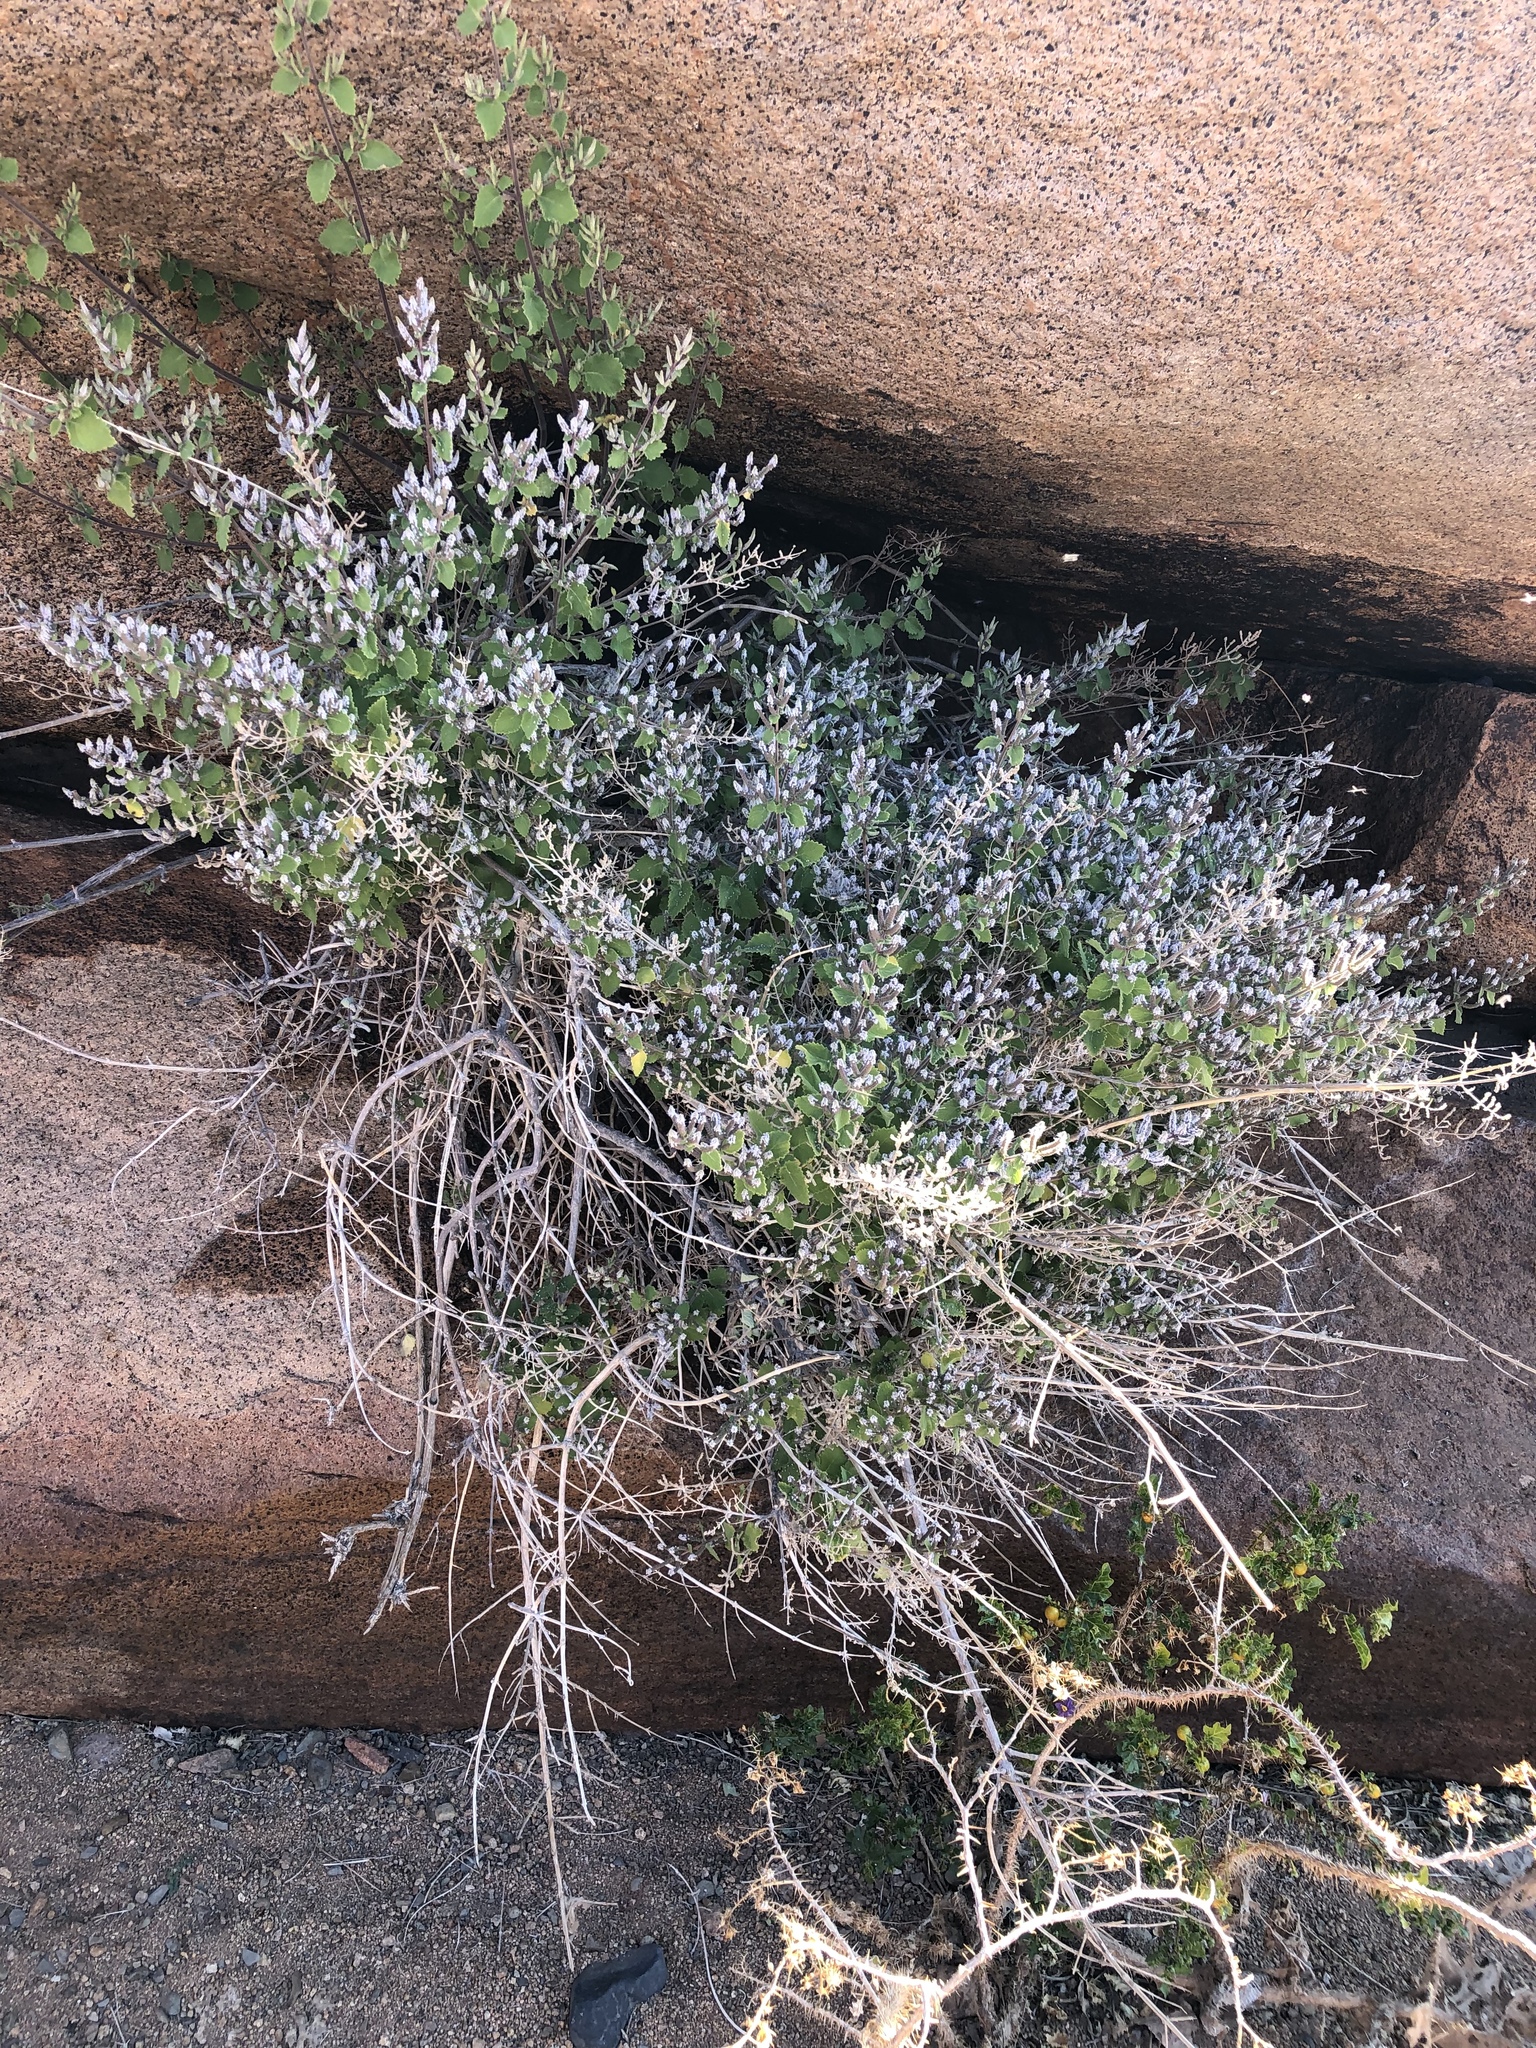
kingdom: Plantae
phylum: Tracheophyta
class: Magnoliopsida
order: Lamiales
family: Lamiaceae
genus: Tetradenia
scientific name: Tetradenia riparia
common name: Gingerbush
